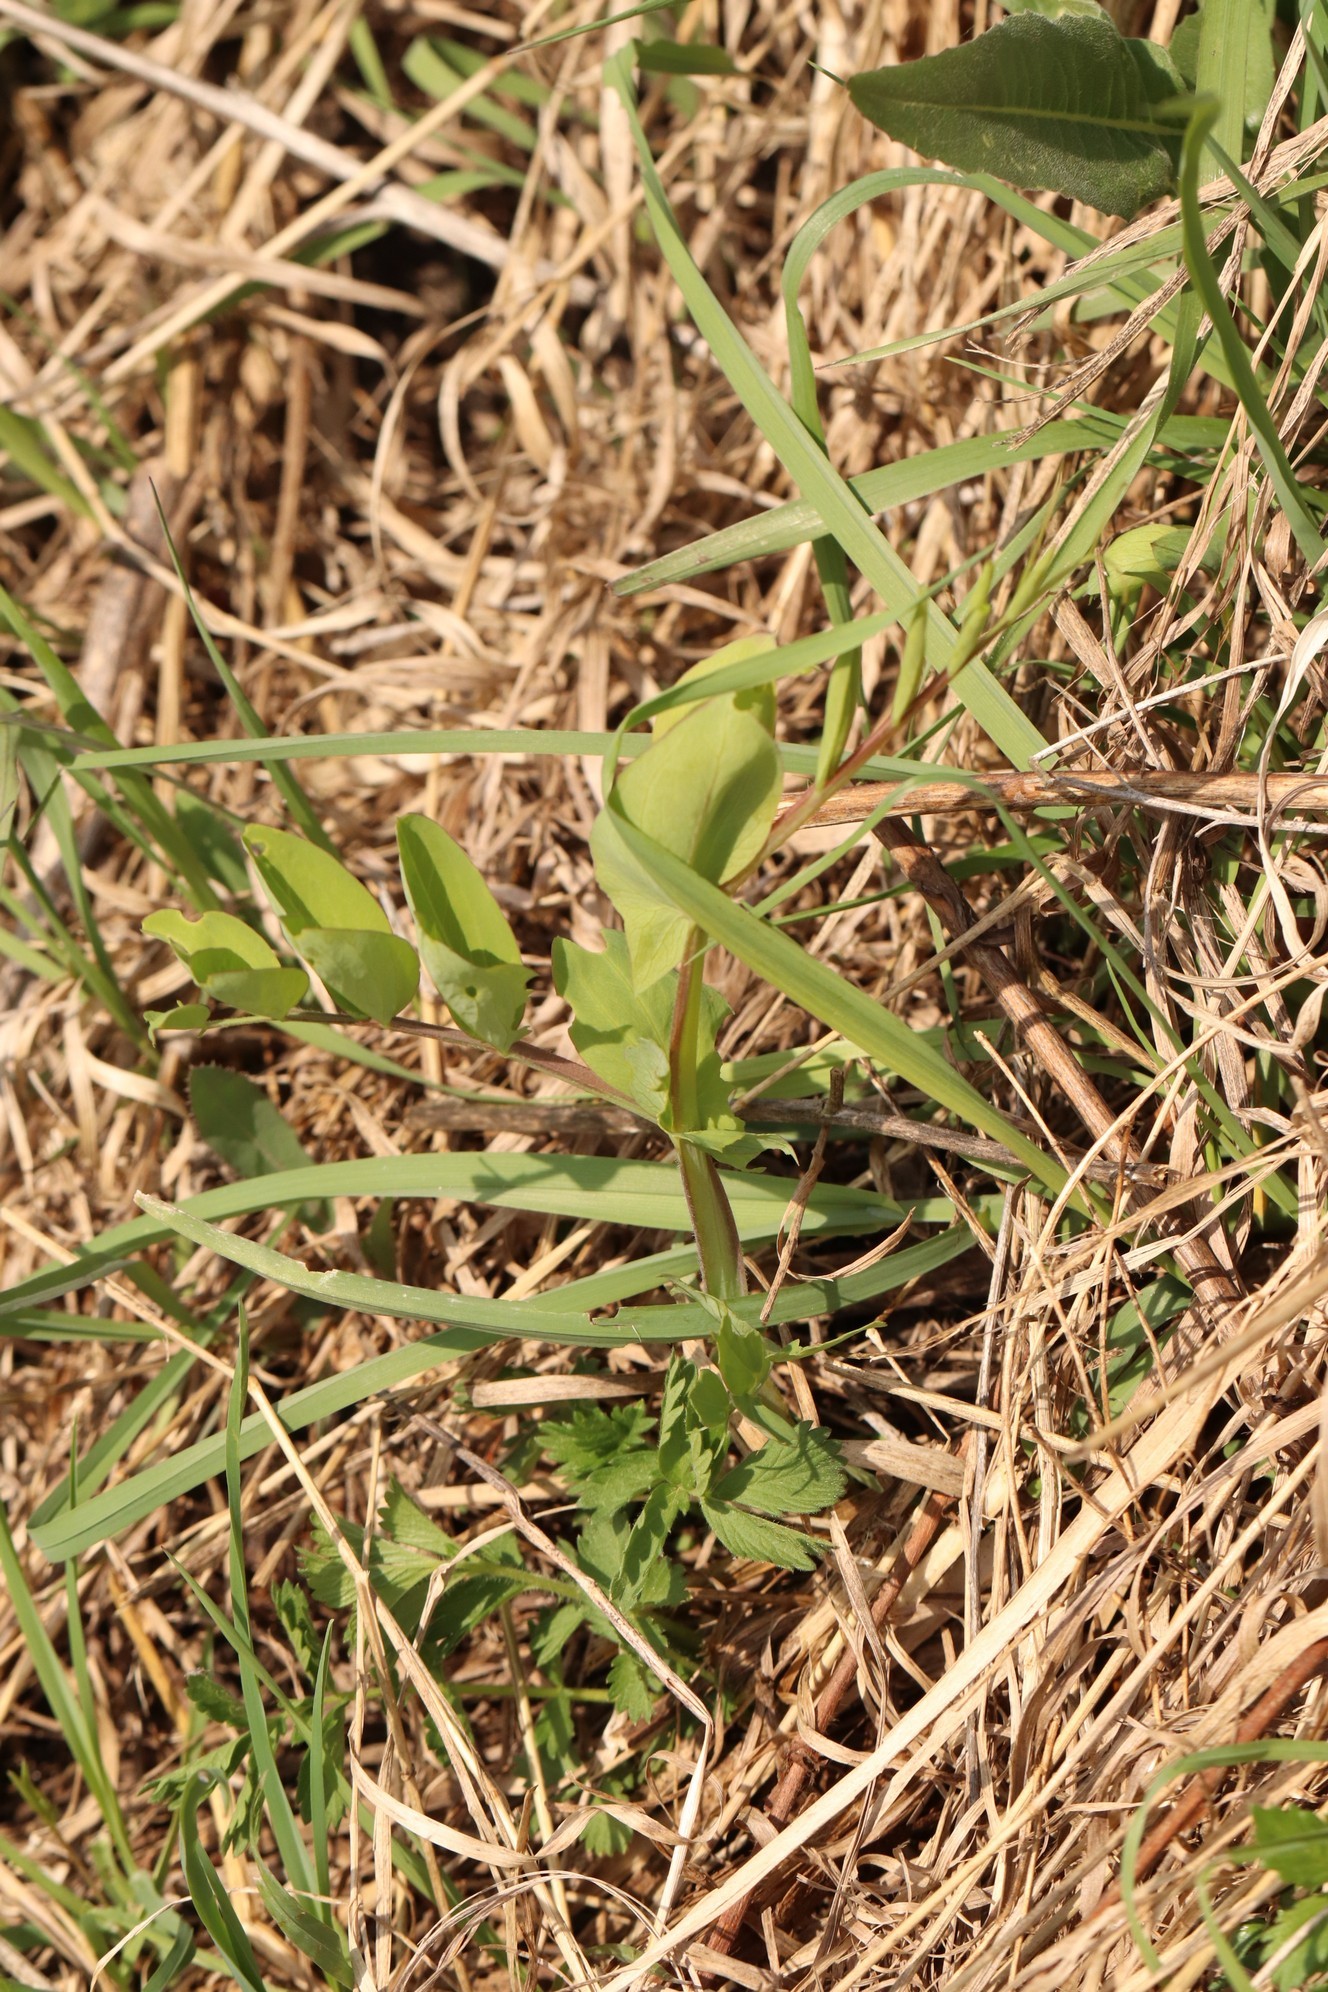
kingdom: Plantae
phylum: Tracheophyta
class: Magnoliopsida
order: Fabales
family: Fabaceae
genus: Lathyrus
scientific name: Lathyrus pisiformis
